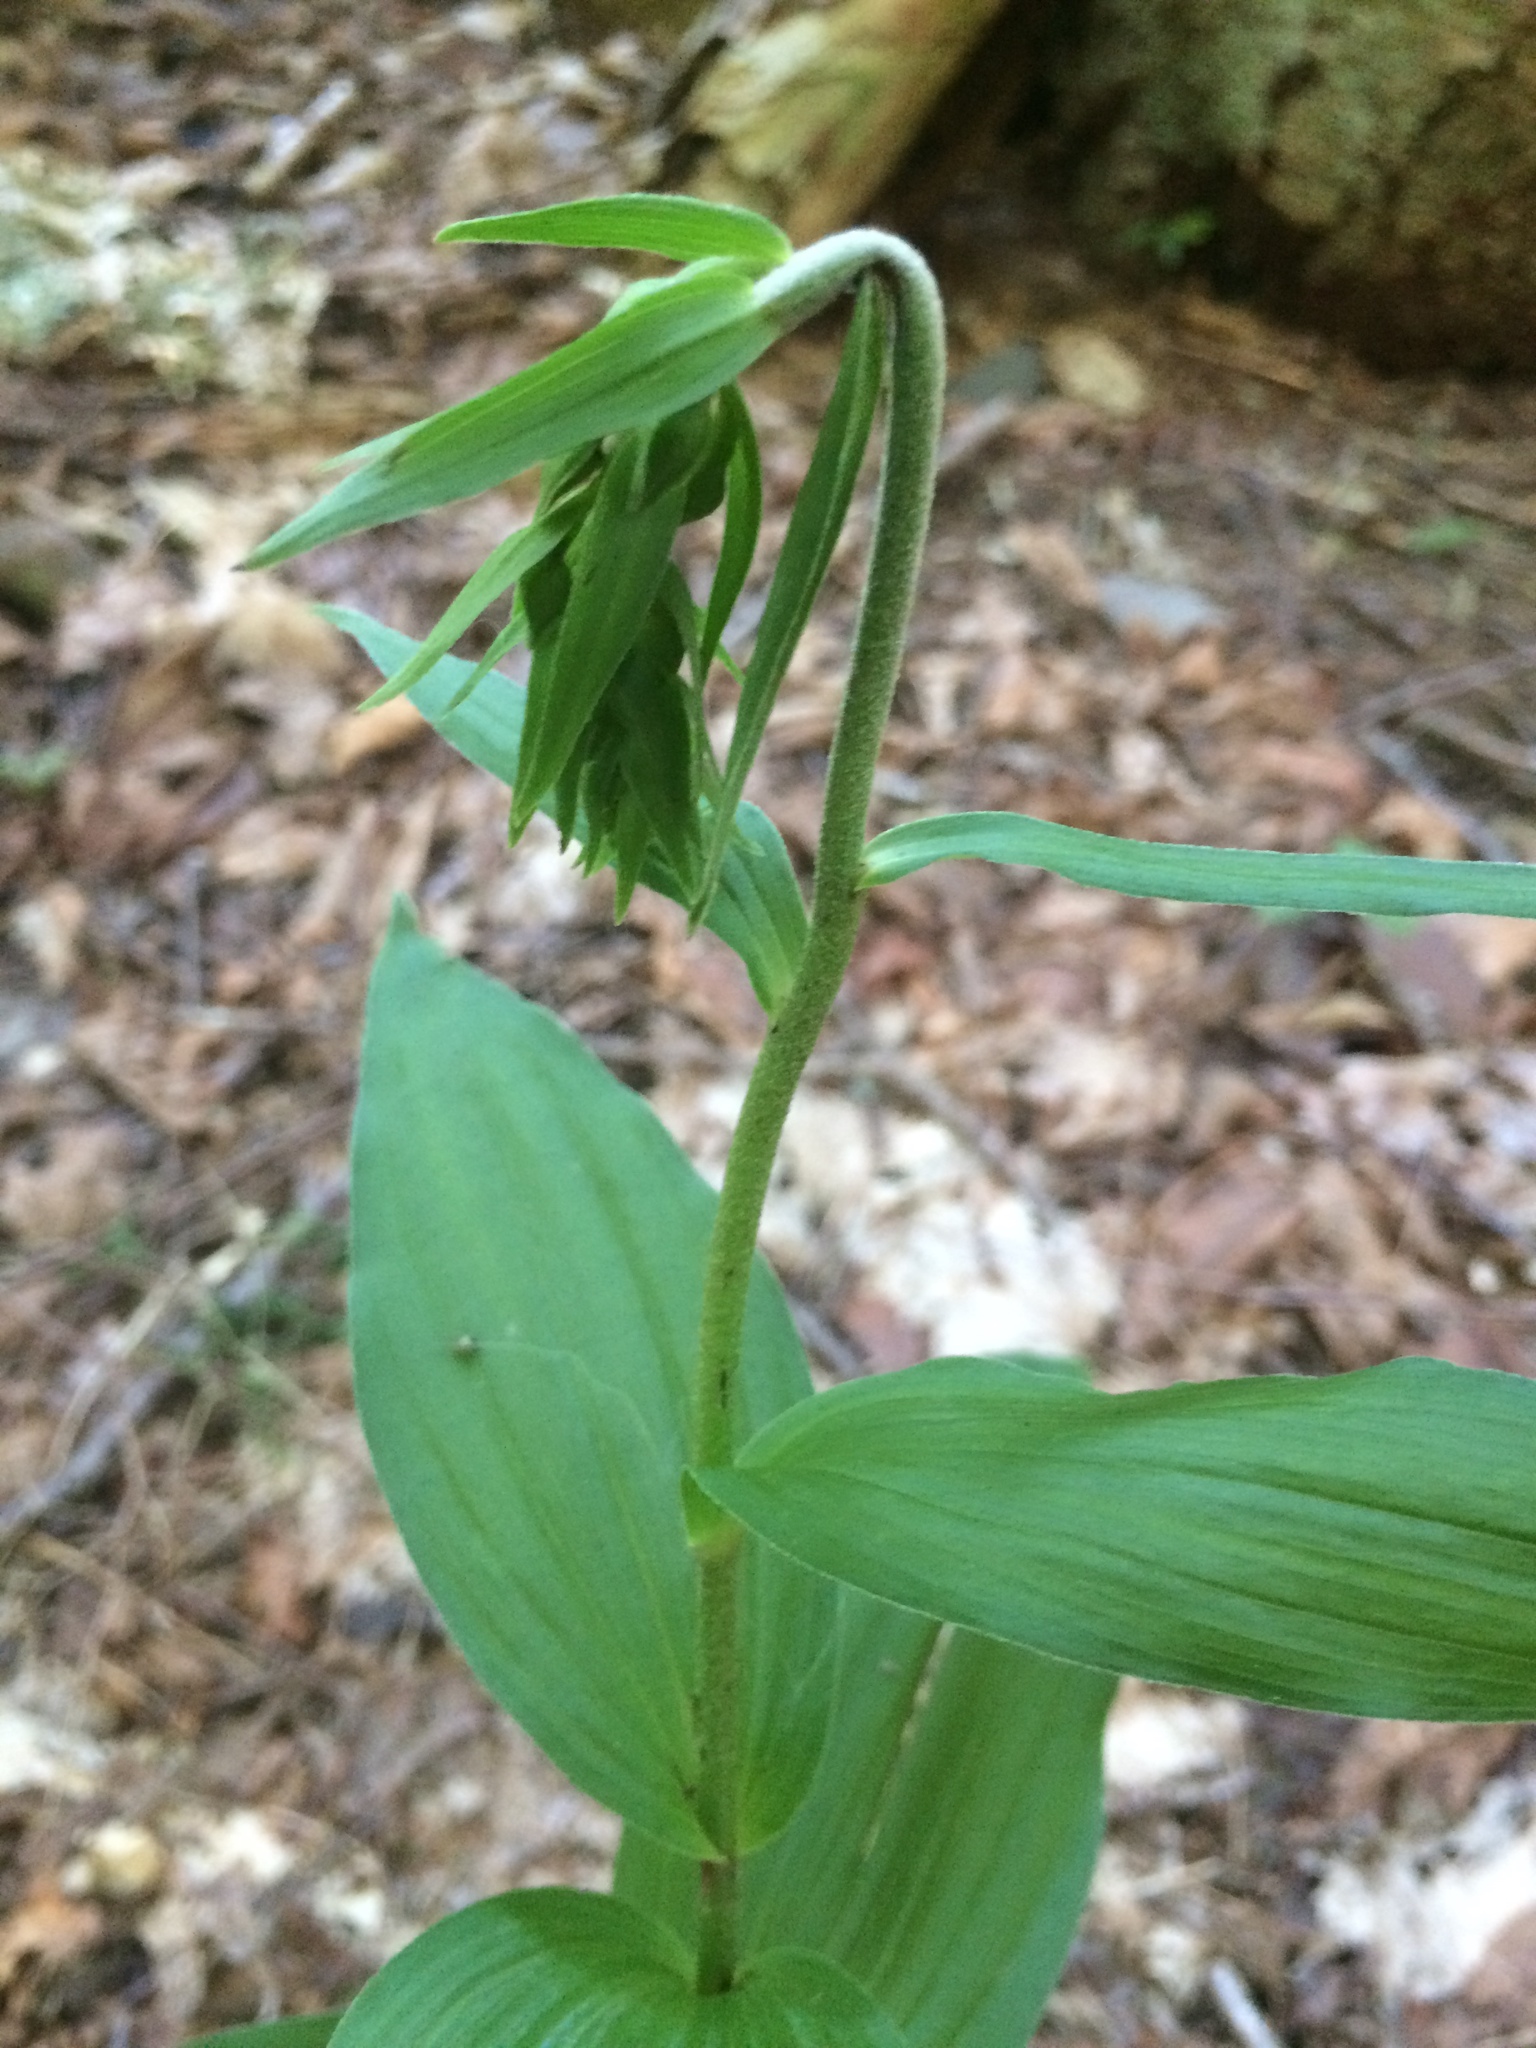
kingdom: Plantae
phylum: Tracheophyta
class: Liliopsida
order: Asparagales
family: Orchidaceae
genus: Epipactis
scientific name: Epipactis helleborine
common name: Broad-leaved helleborine
